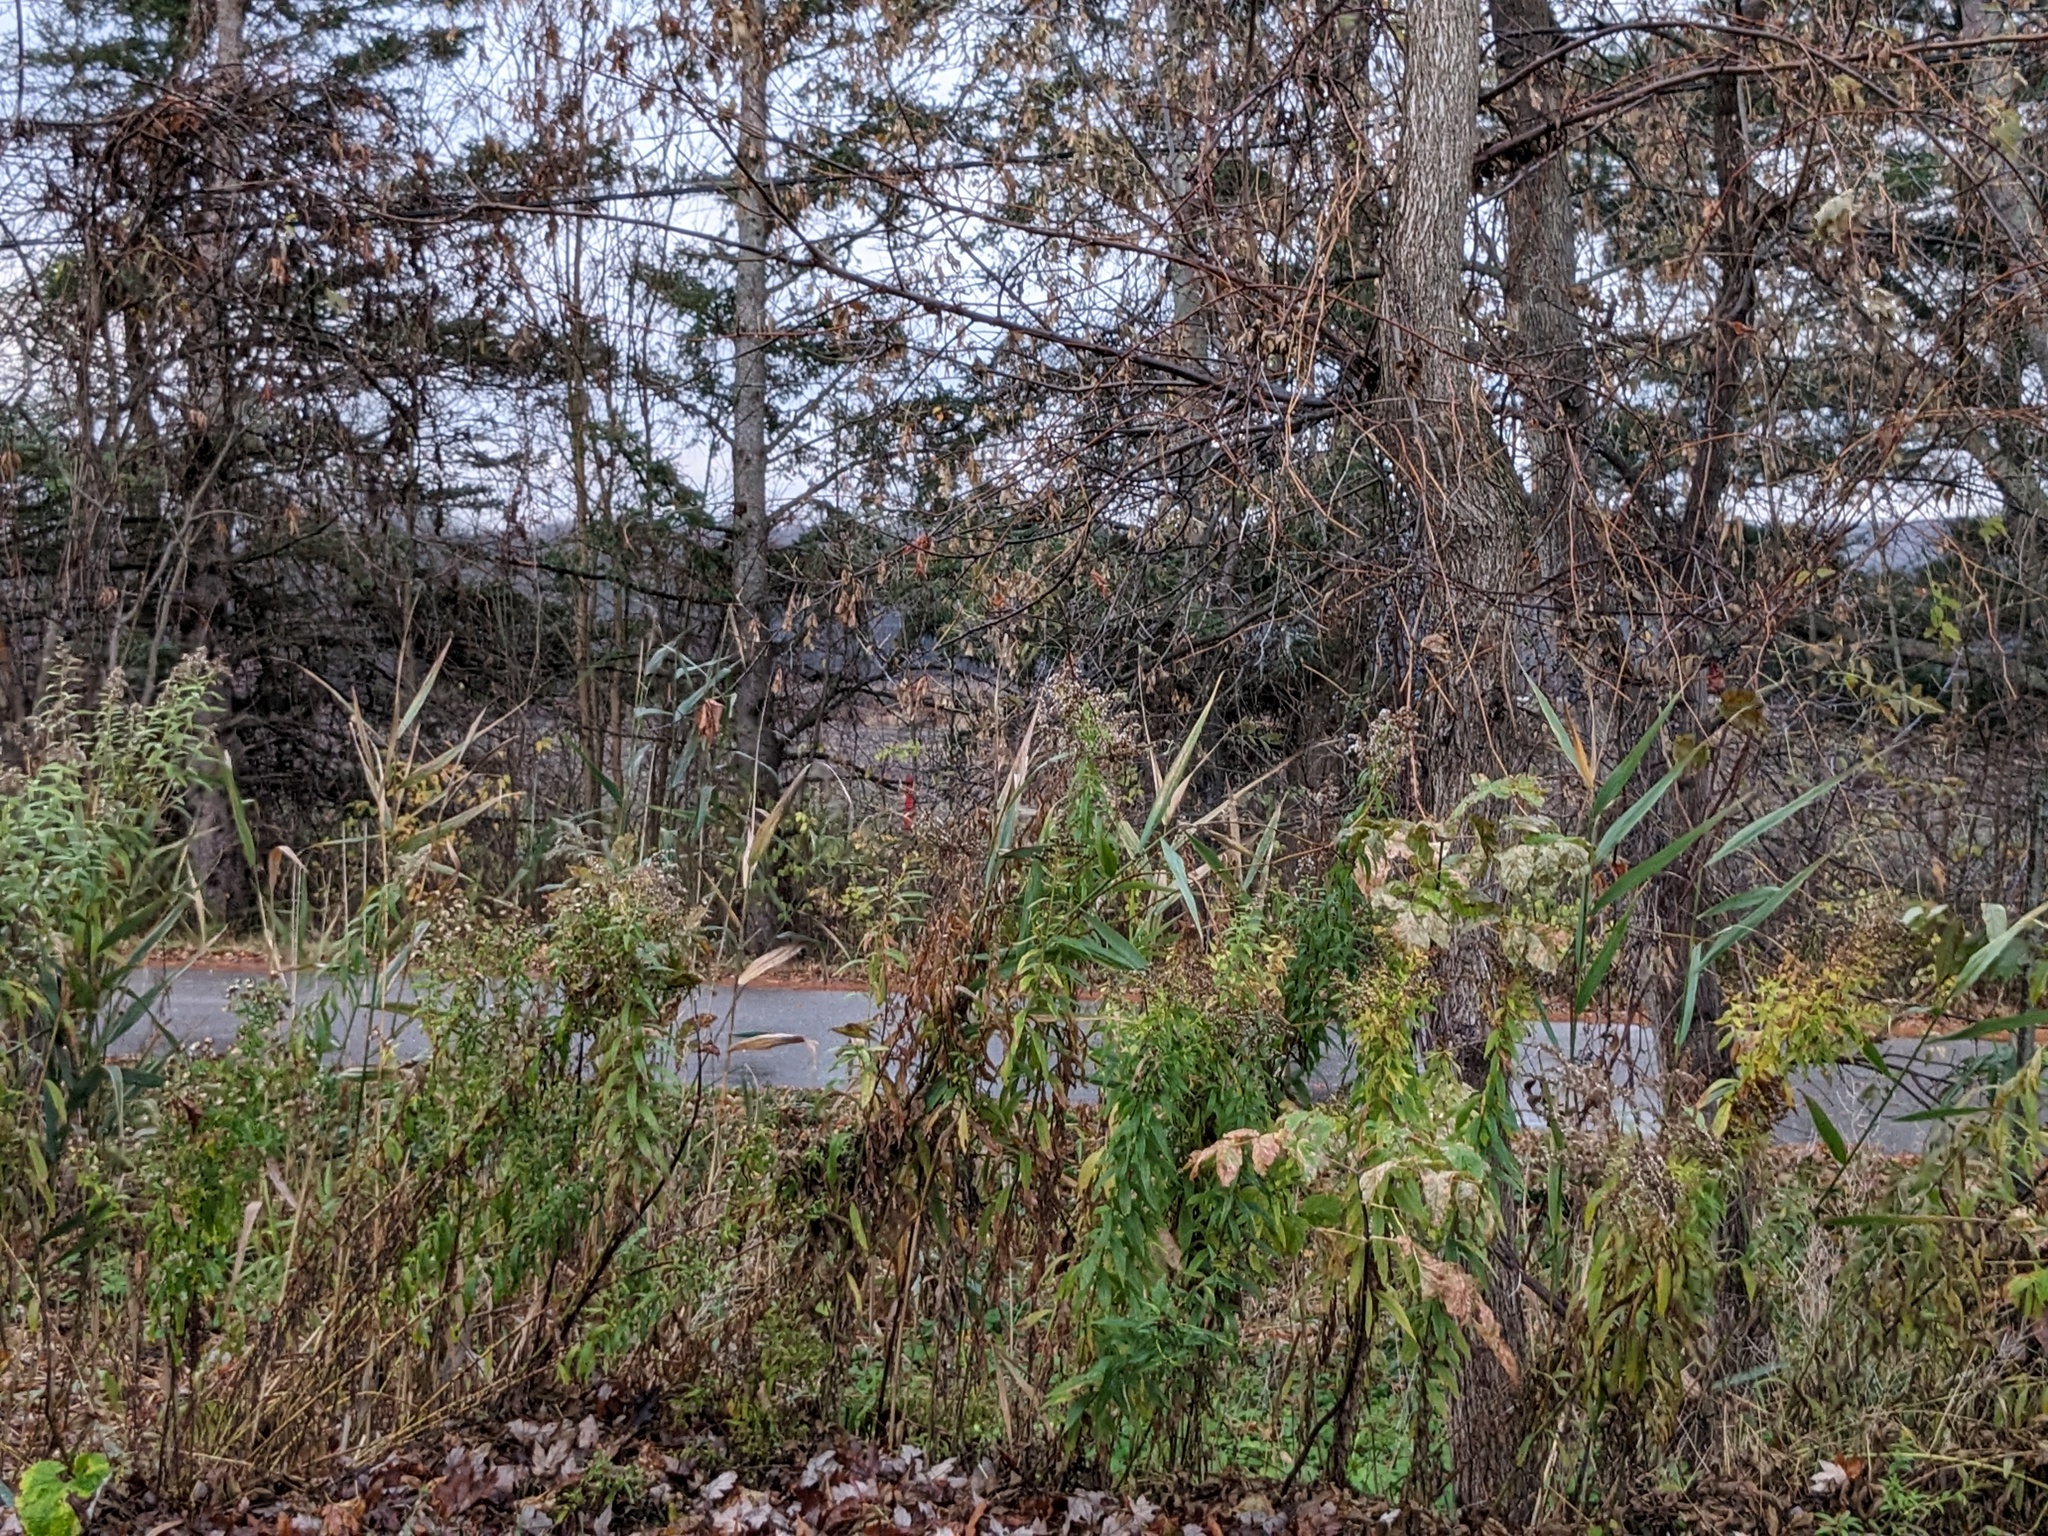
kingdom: Plantae
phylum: Tracheophyta
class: Liliopsida
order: Poales
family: Poaceae
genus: Phragmites
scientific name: Phragmites australis
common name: Common reed
